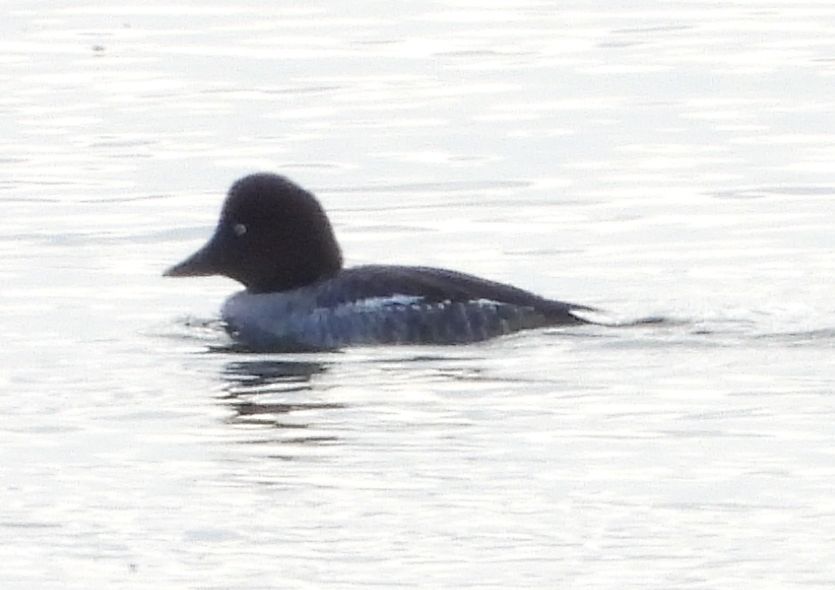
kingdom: Animalia
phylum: Chordata
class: Aves
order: Anseriformes
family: Anatidae
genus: Bucephala
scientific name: Bucephala clangula
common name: Common goldeneye
